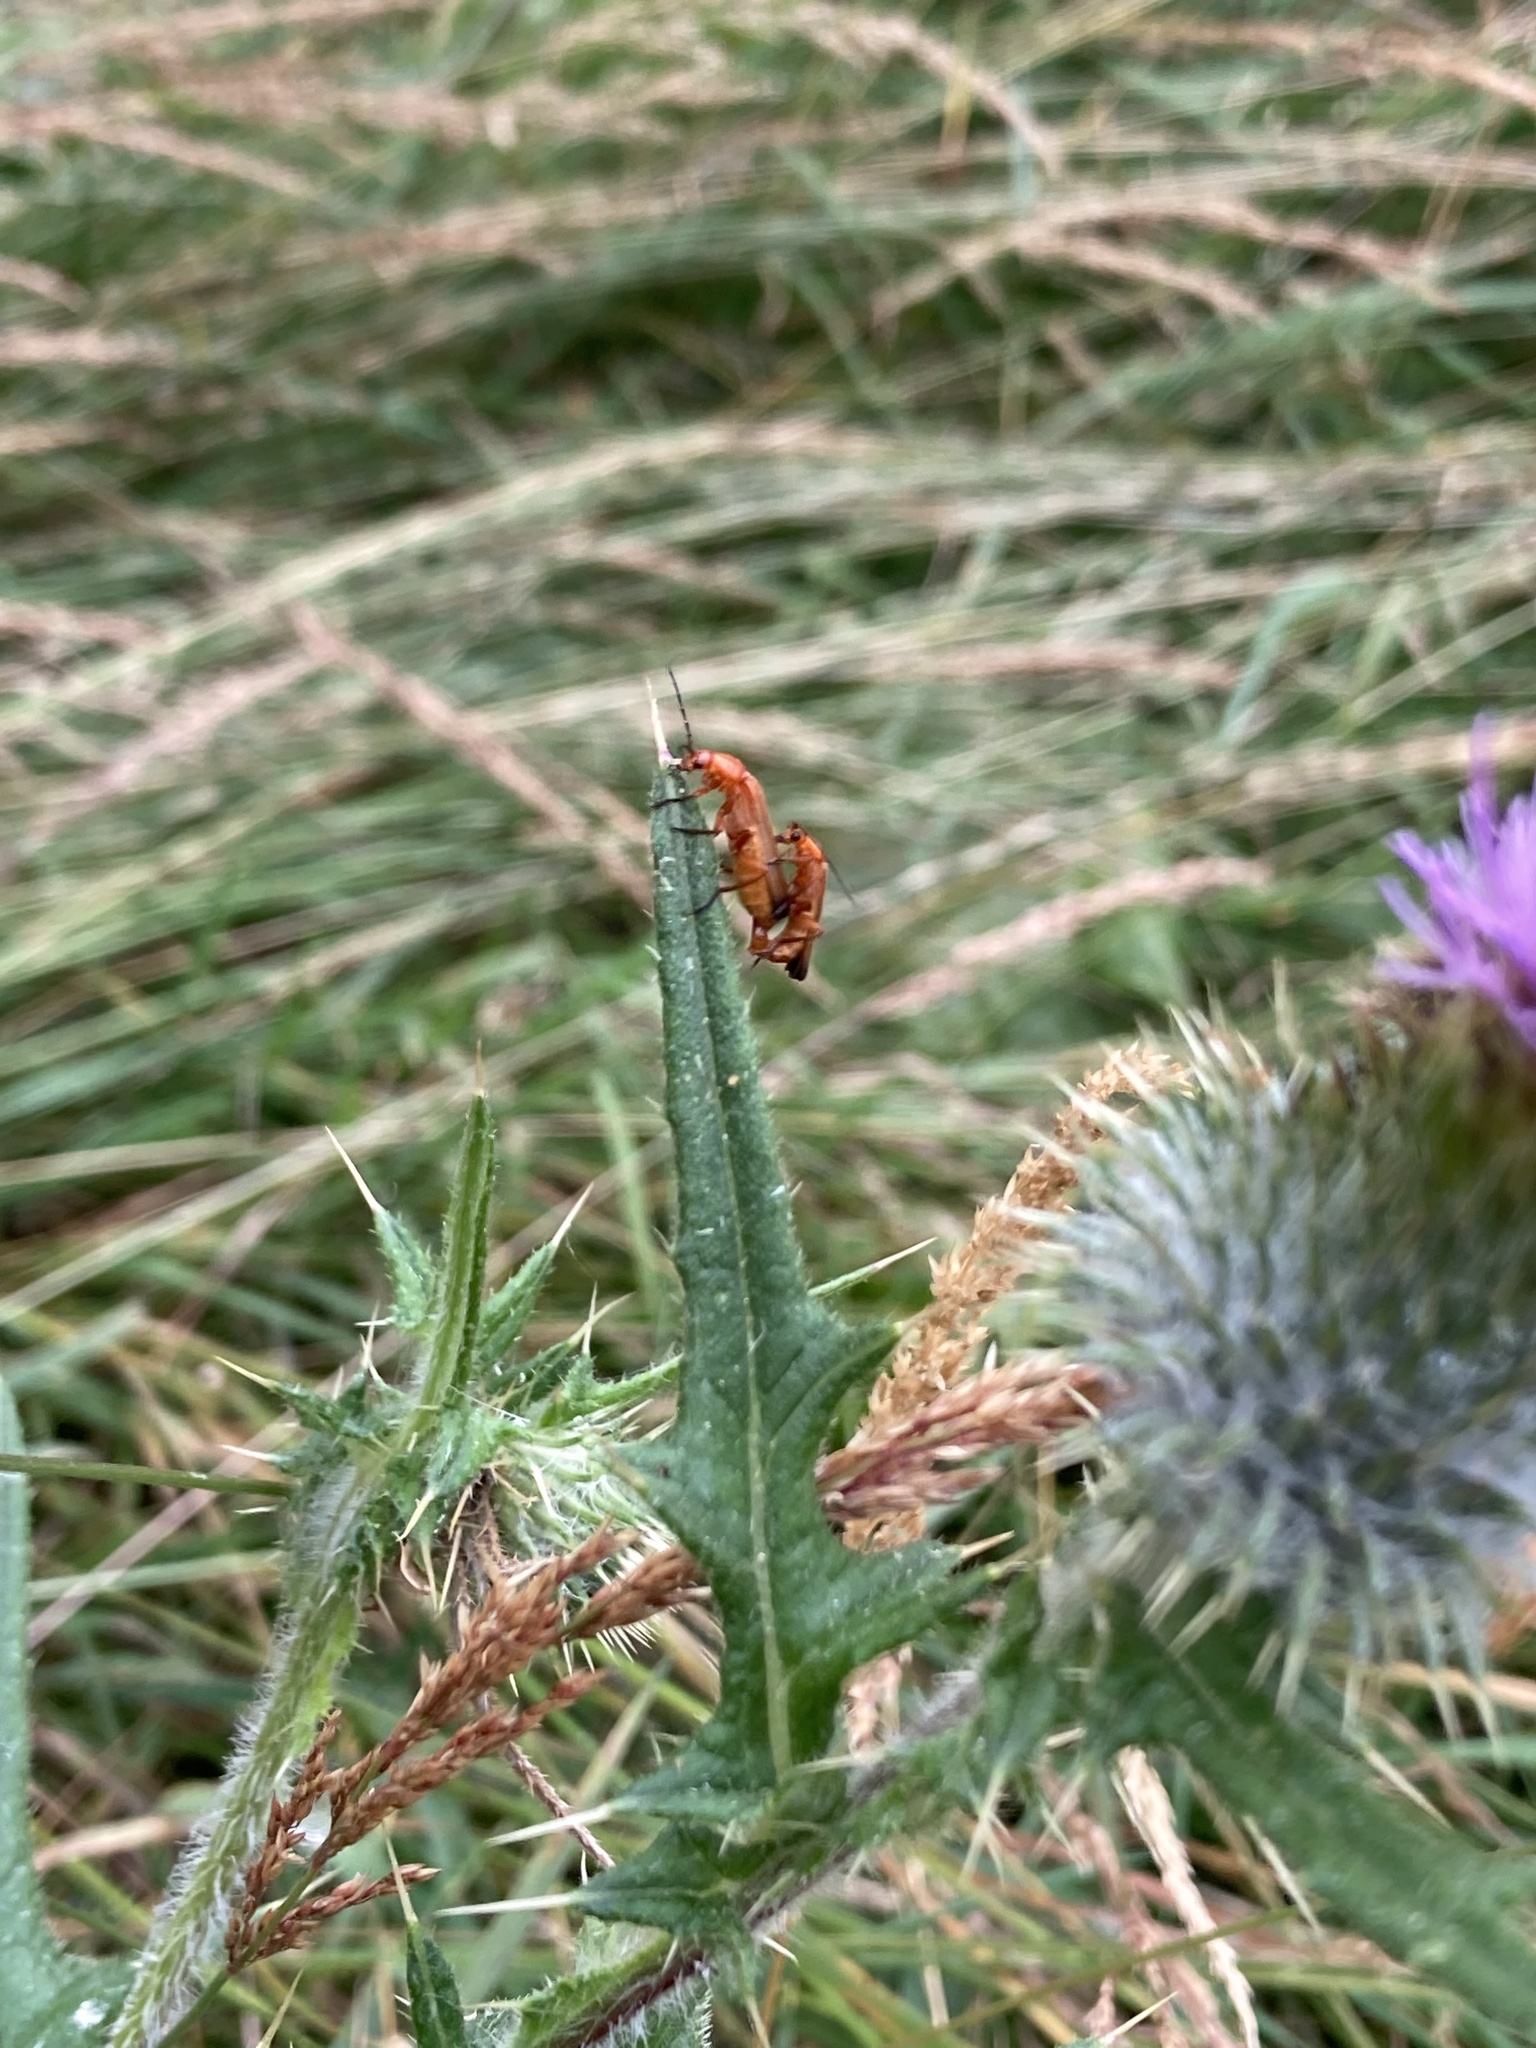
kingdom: Animalia
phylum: Arthropoda
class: Insecta
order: Coleoptera
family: Cantharidae
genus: Rhagonycha
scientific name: Rhagonycha fulva
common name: Common red soldier beetle
